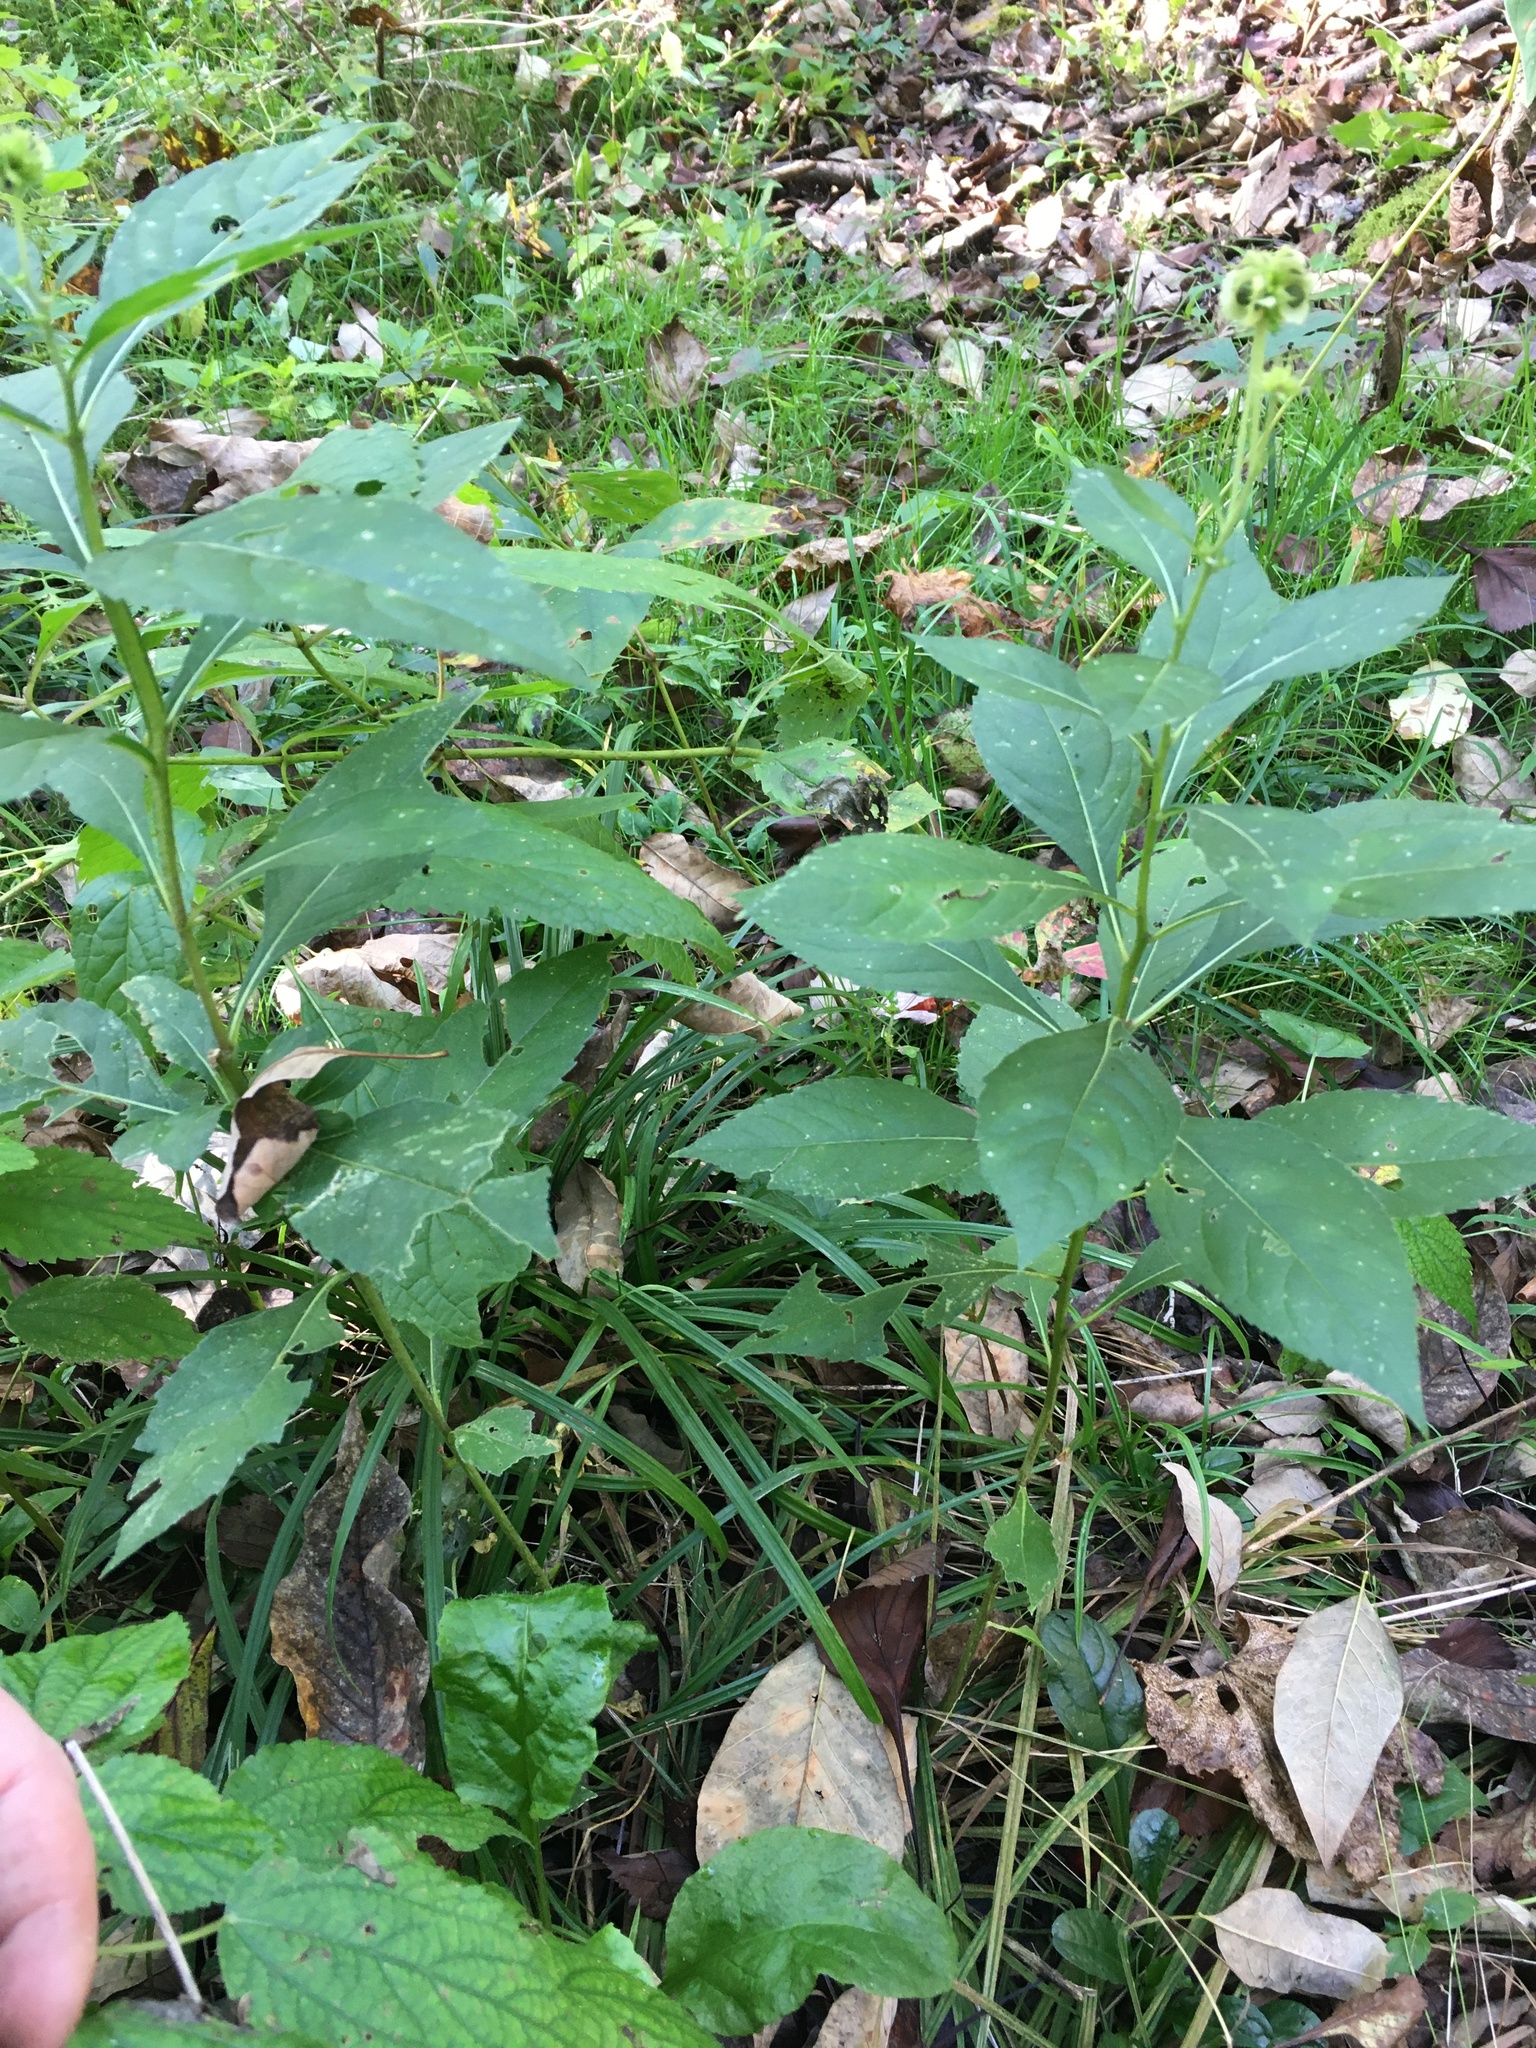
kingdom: Plantae
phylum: Tracheophyta
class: Magnoliopsida
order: Asterales
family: Asteraceae
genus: Verbesina
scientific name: Verbesina alternifolia
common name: Wingstem
